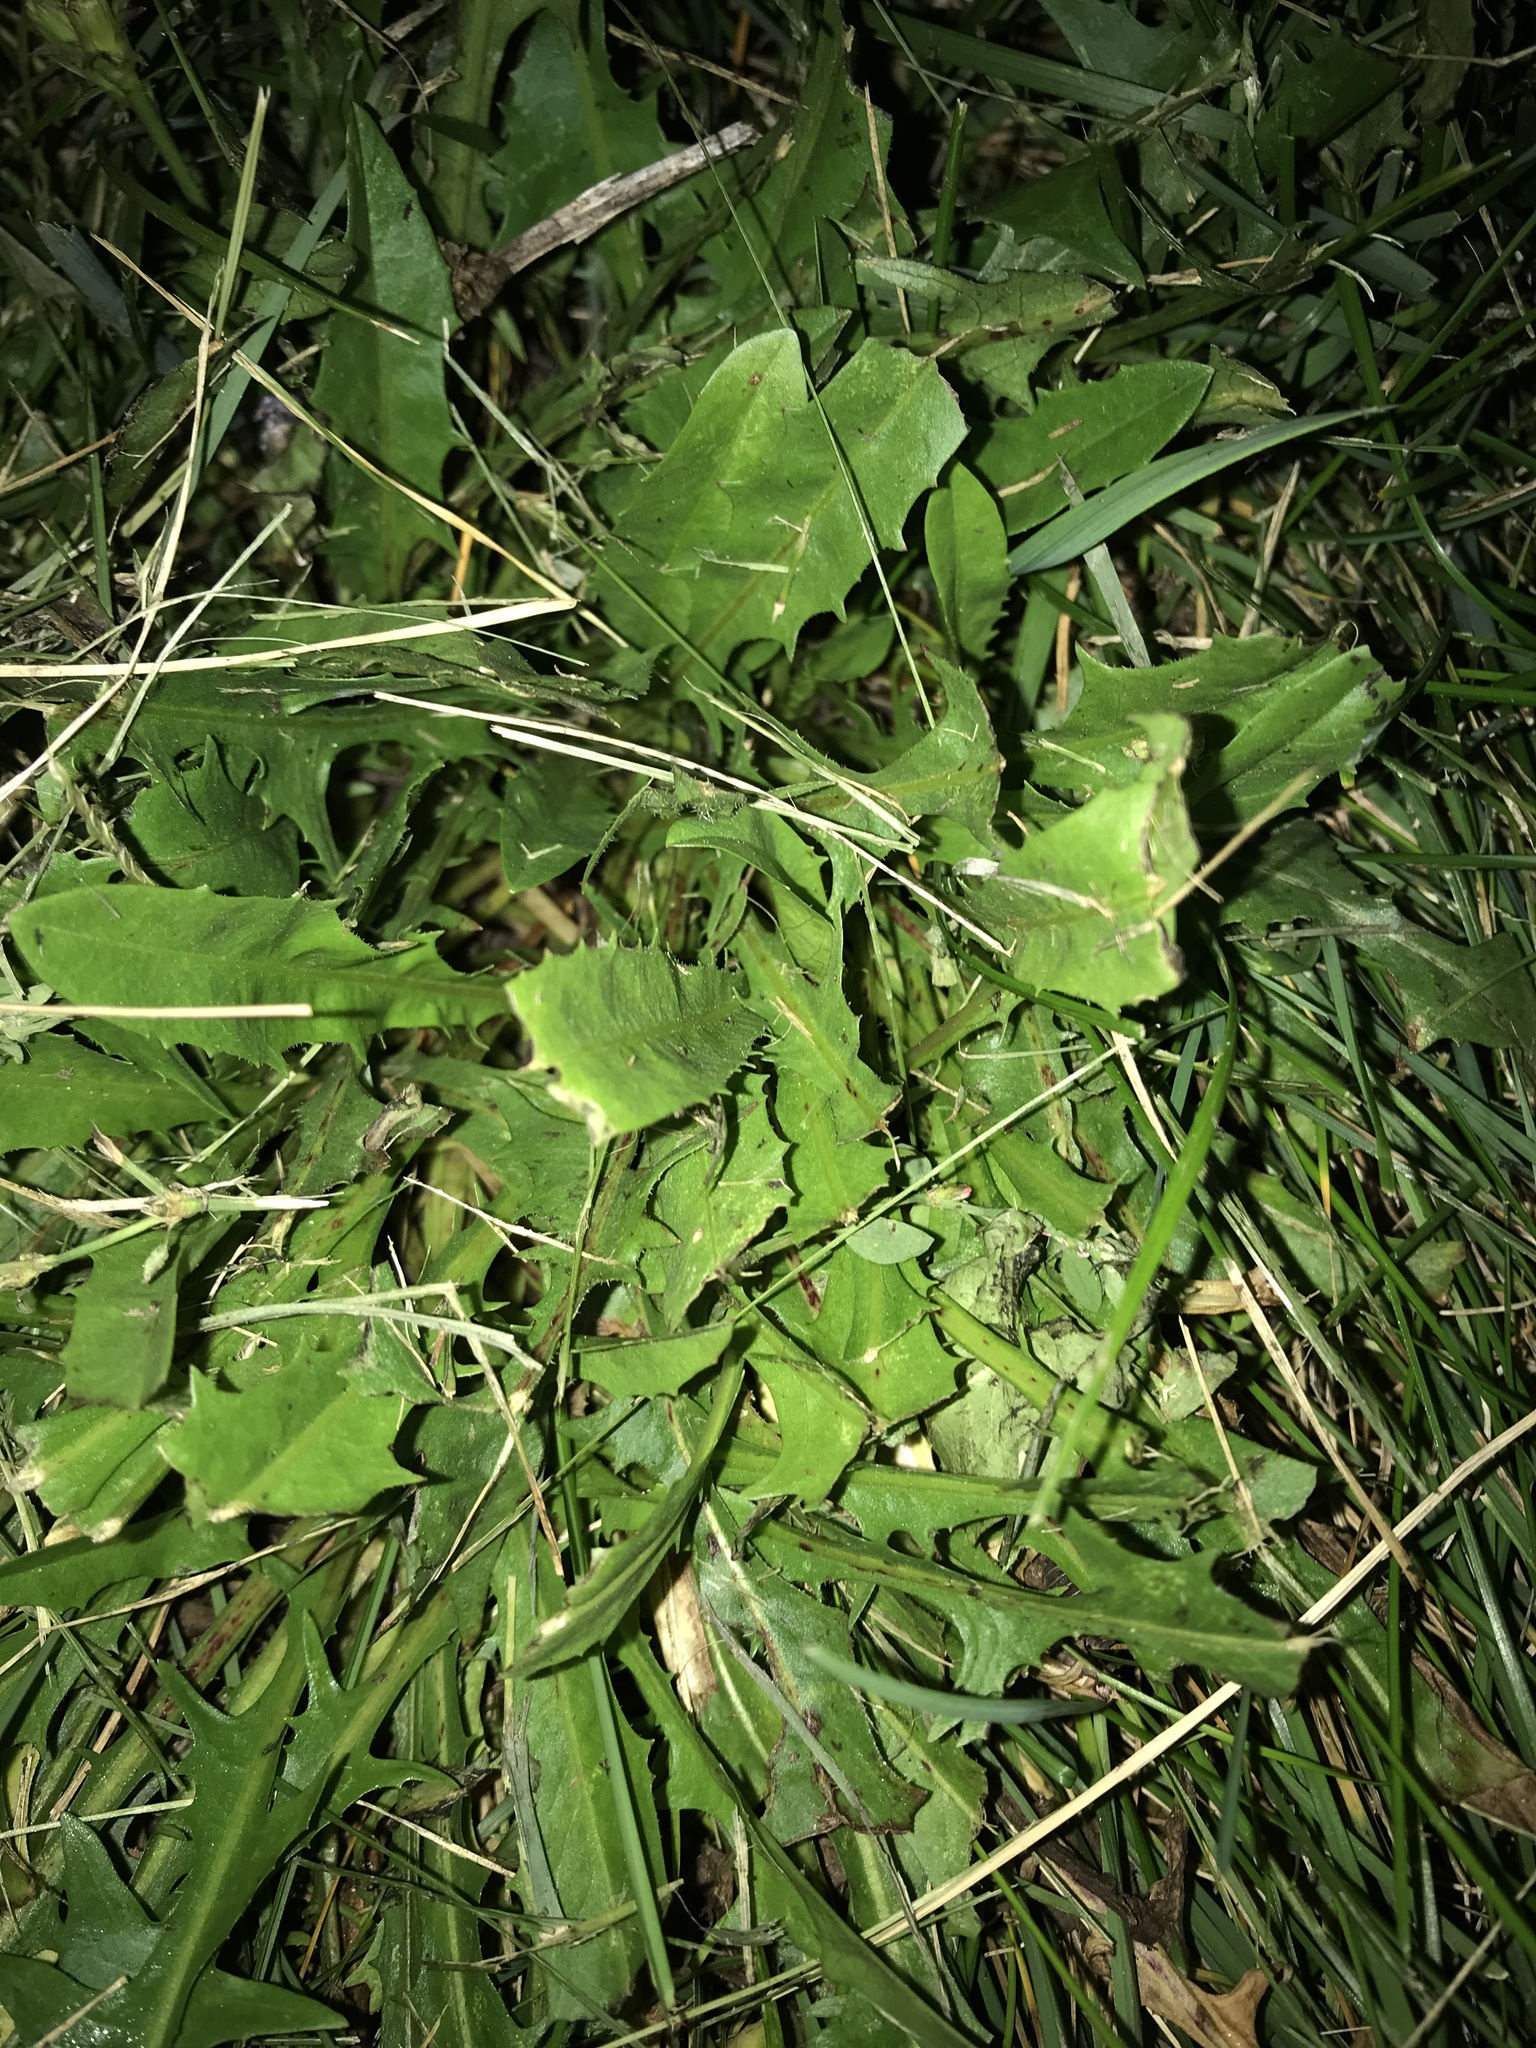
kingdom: Plantae
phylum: Tracheophyta
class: Magnoliopsida
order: Asterales
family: Asteraceae
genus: Taraxacum
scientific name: Taraxacum officinale
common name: Common dandelion
